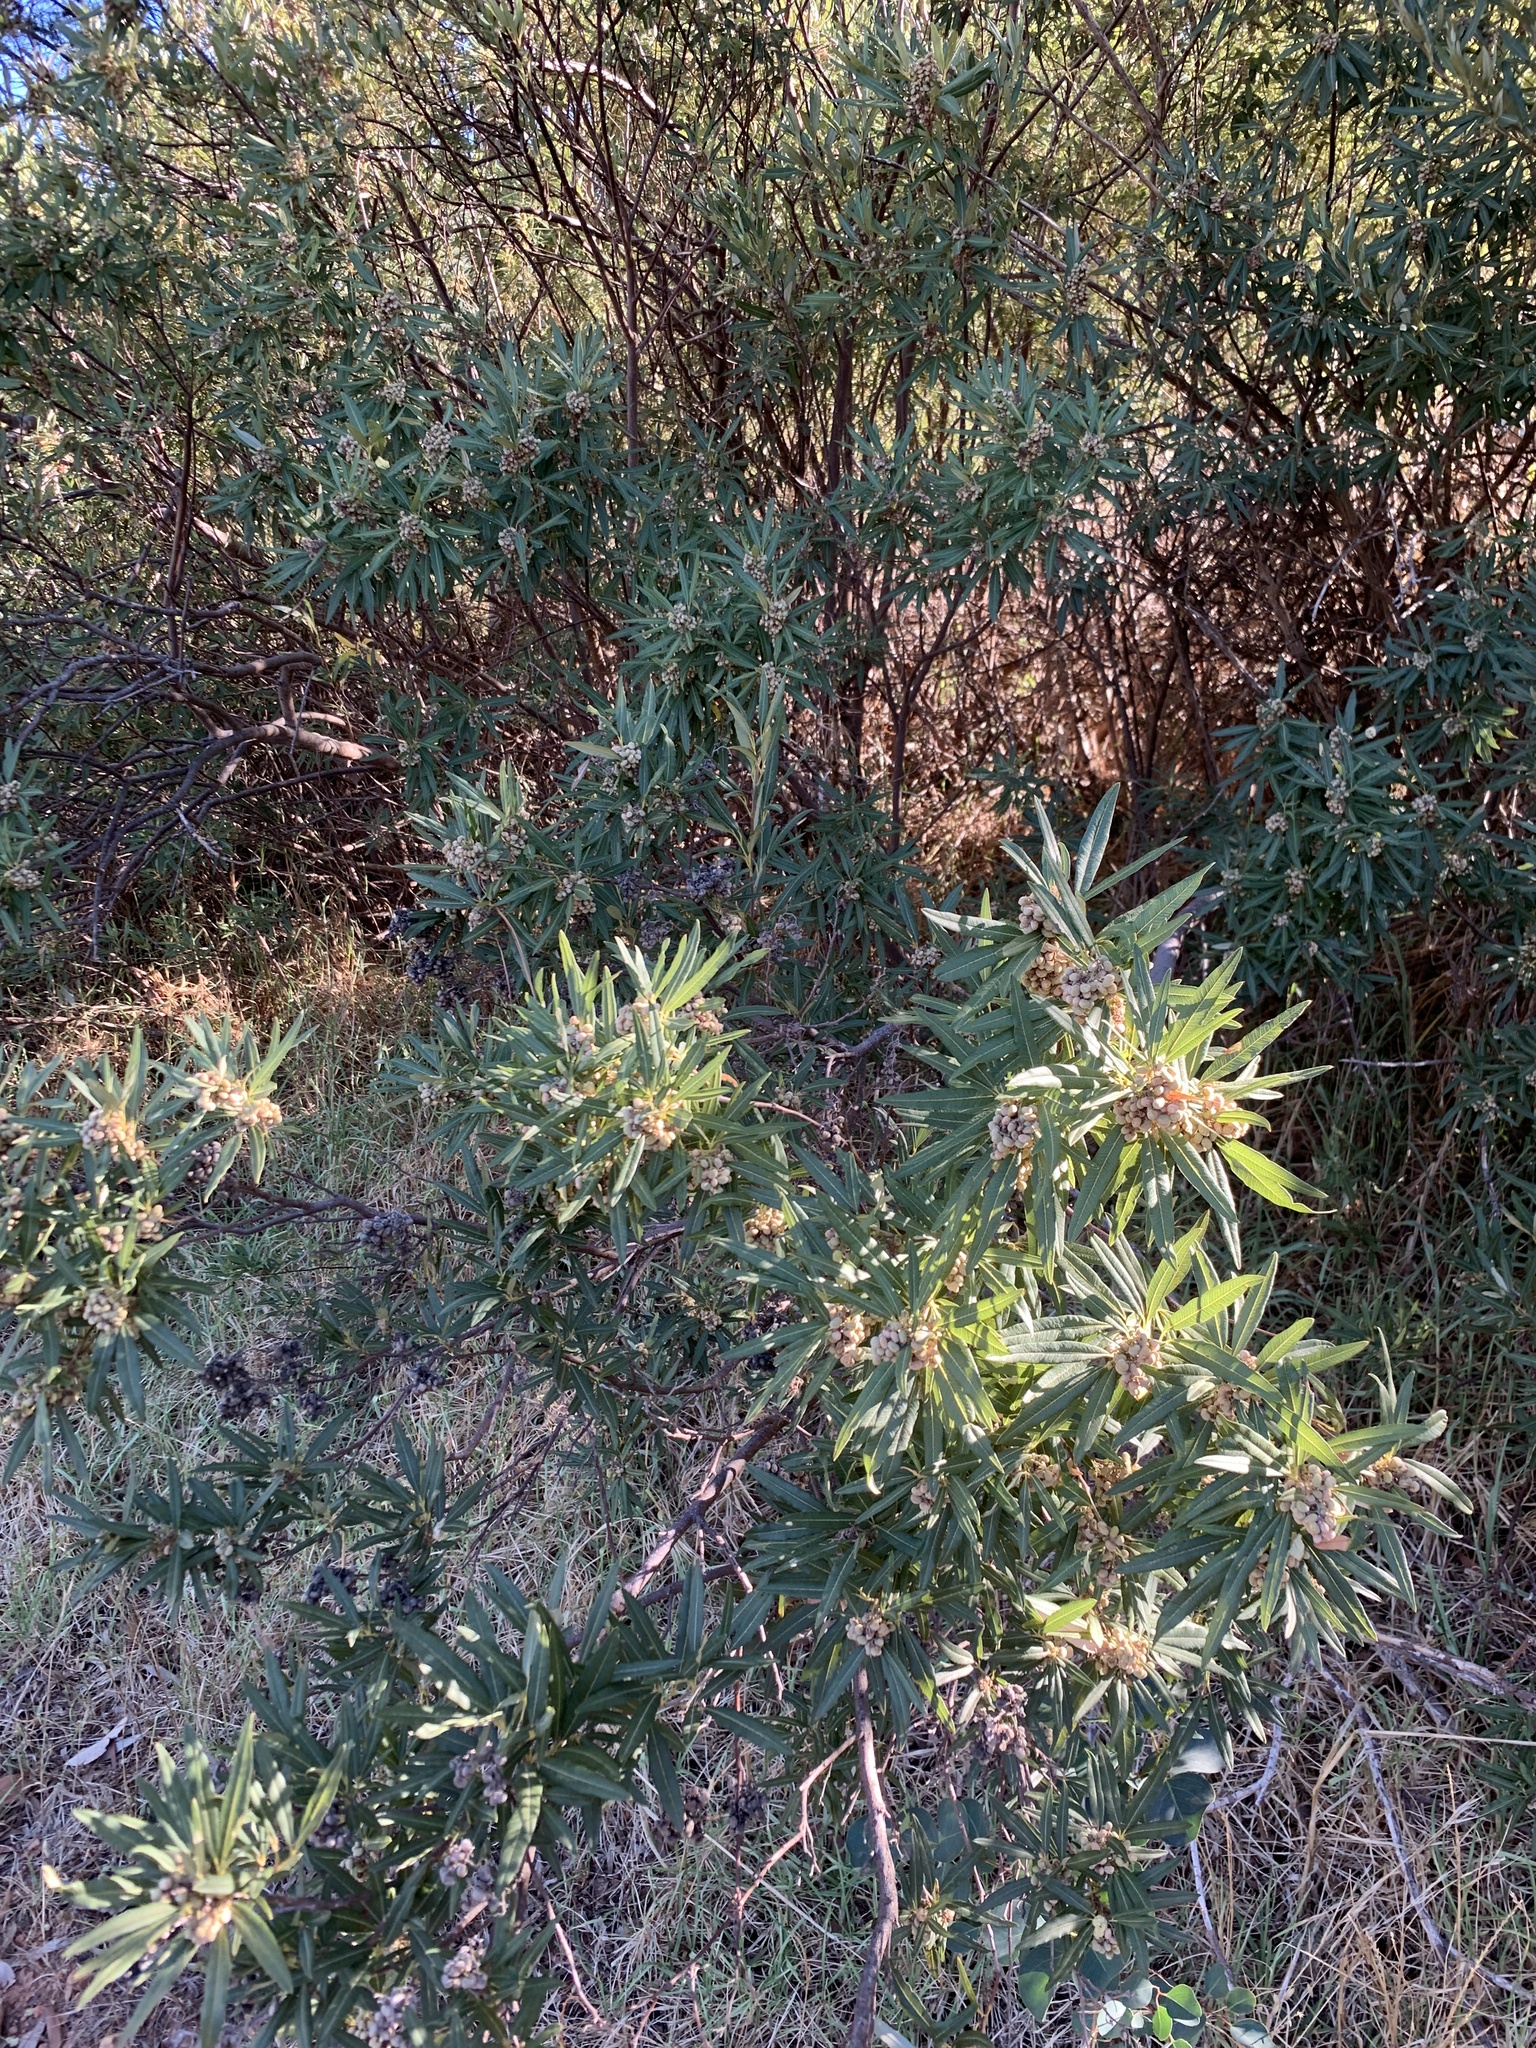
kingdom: Plantae
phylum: Tracheophyta
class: Magnoliopsida
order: Sapindales
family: Anacardiaceae
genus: Searsia
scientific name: Searsia angustifolia
